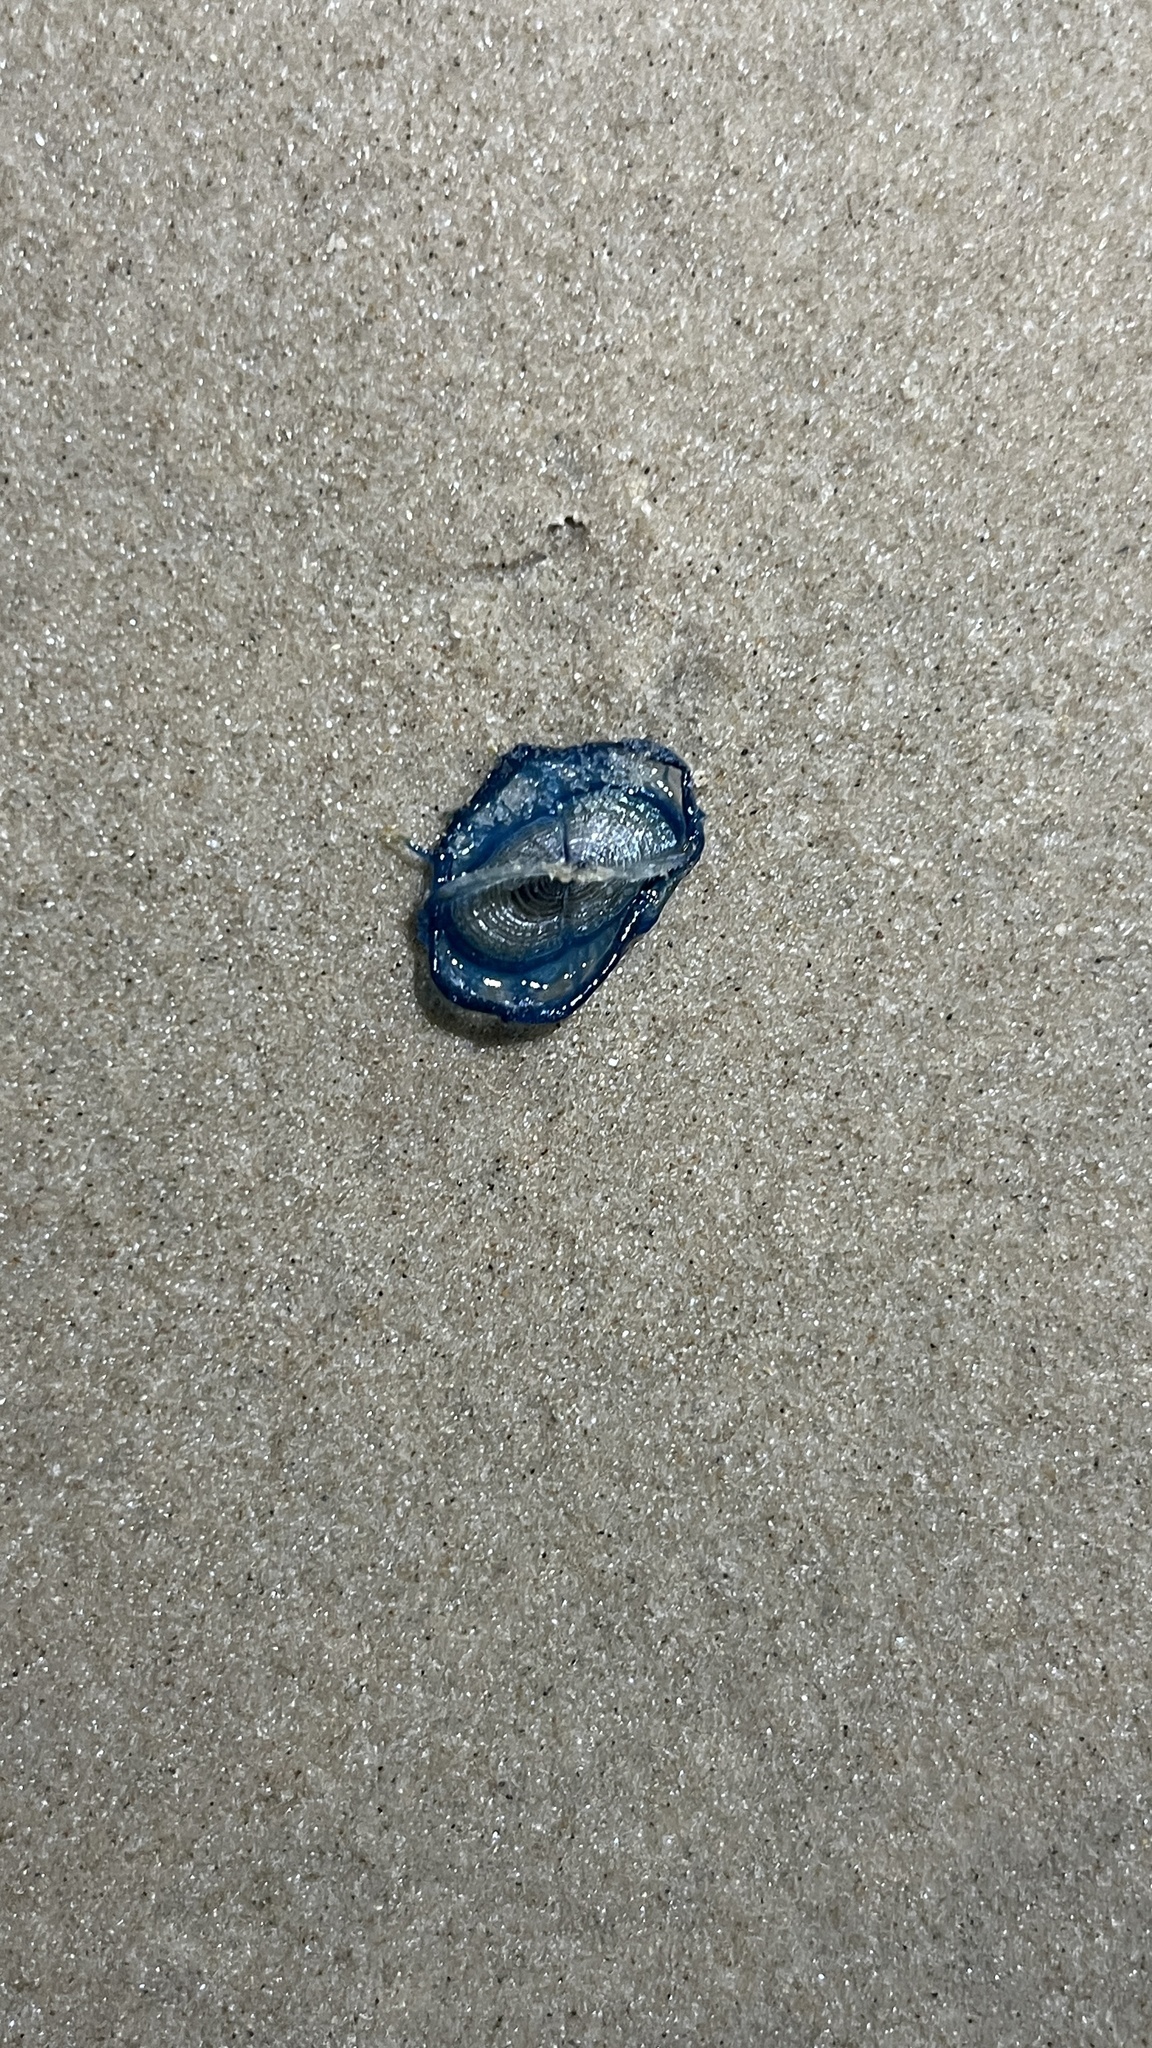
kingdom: Animalia
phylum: Cnidaria
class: Hydrozoa
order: Anthoathecata
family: Porpitidae
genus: Velella
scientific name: Velella velella
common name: By-the-wind-sailor
